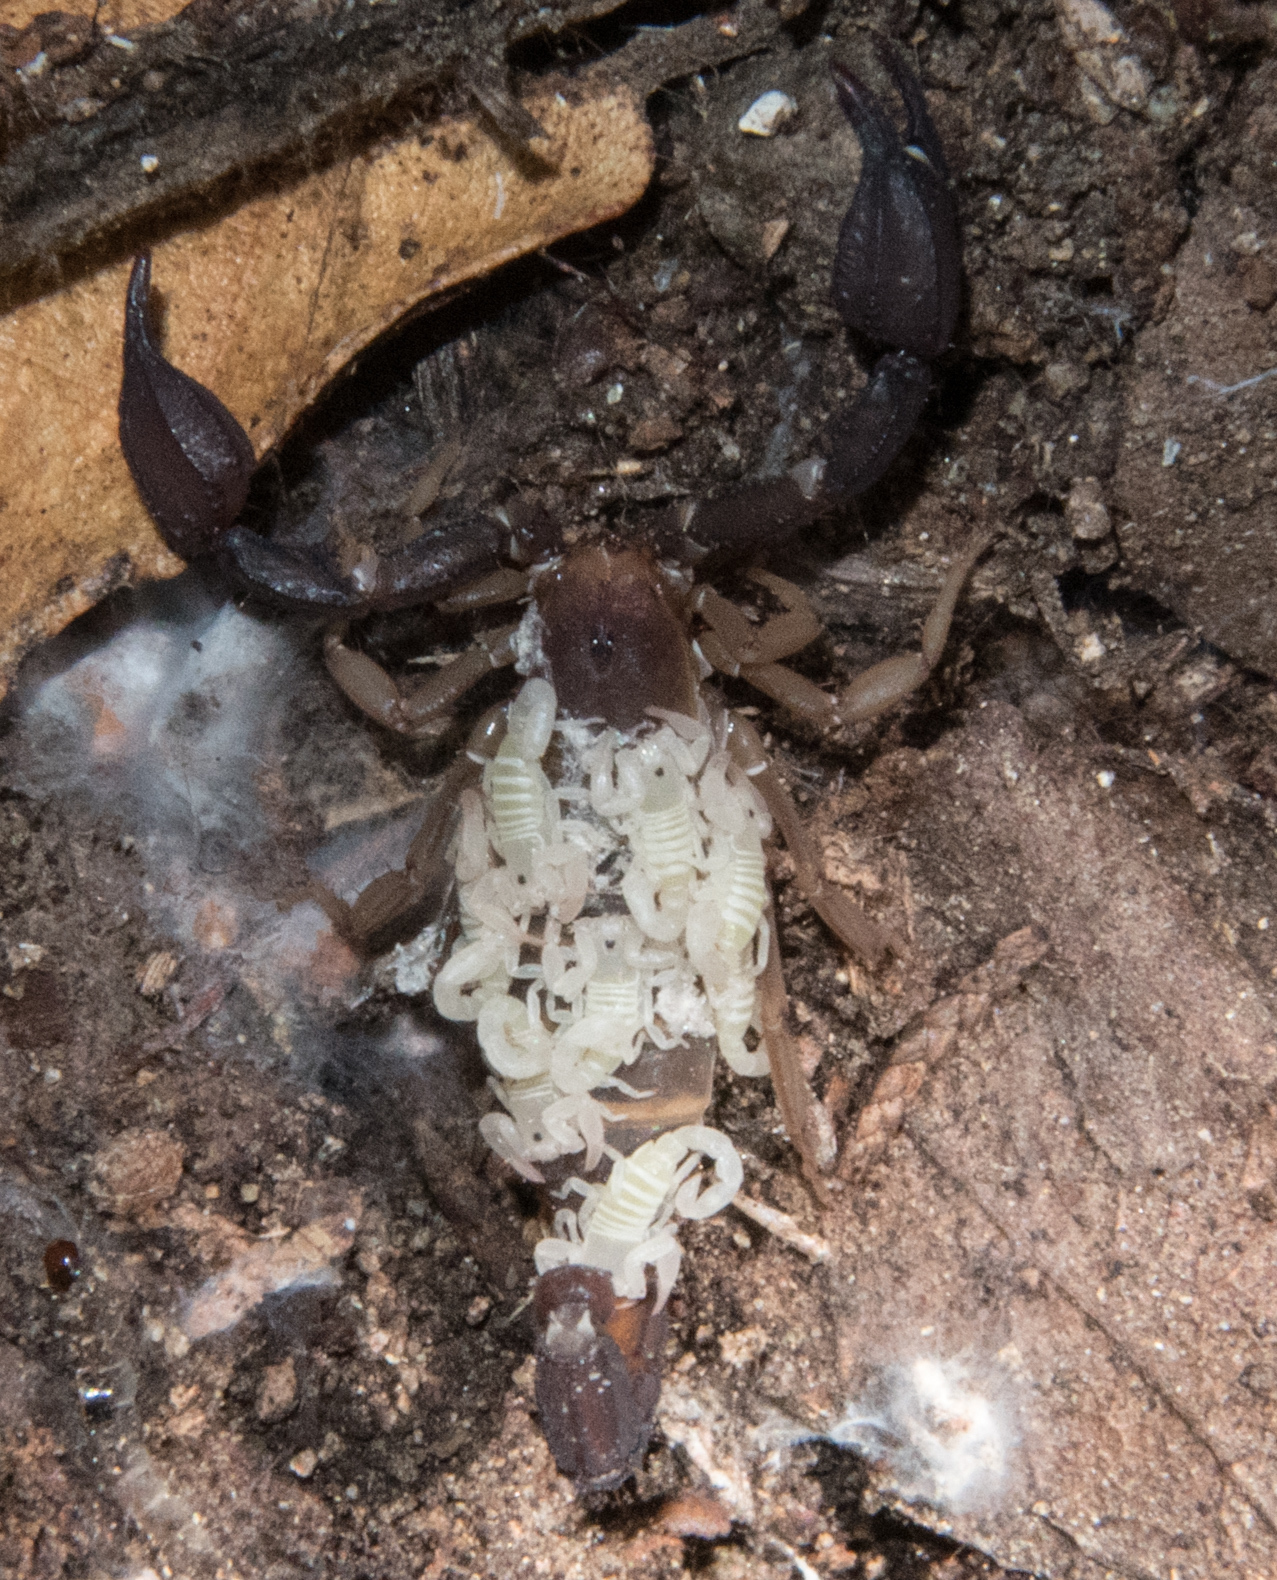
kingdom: Animalia
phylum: Arthropoda
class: Arachnida
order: Scorpiones
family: Vaejovidae
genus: Pseudouroctonus
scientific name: Pseudouroctonus santarita
